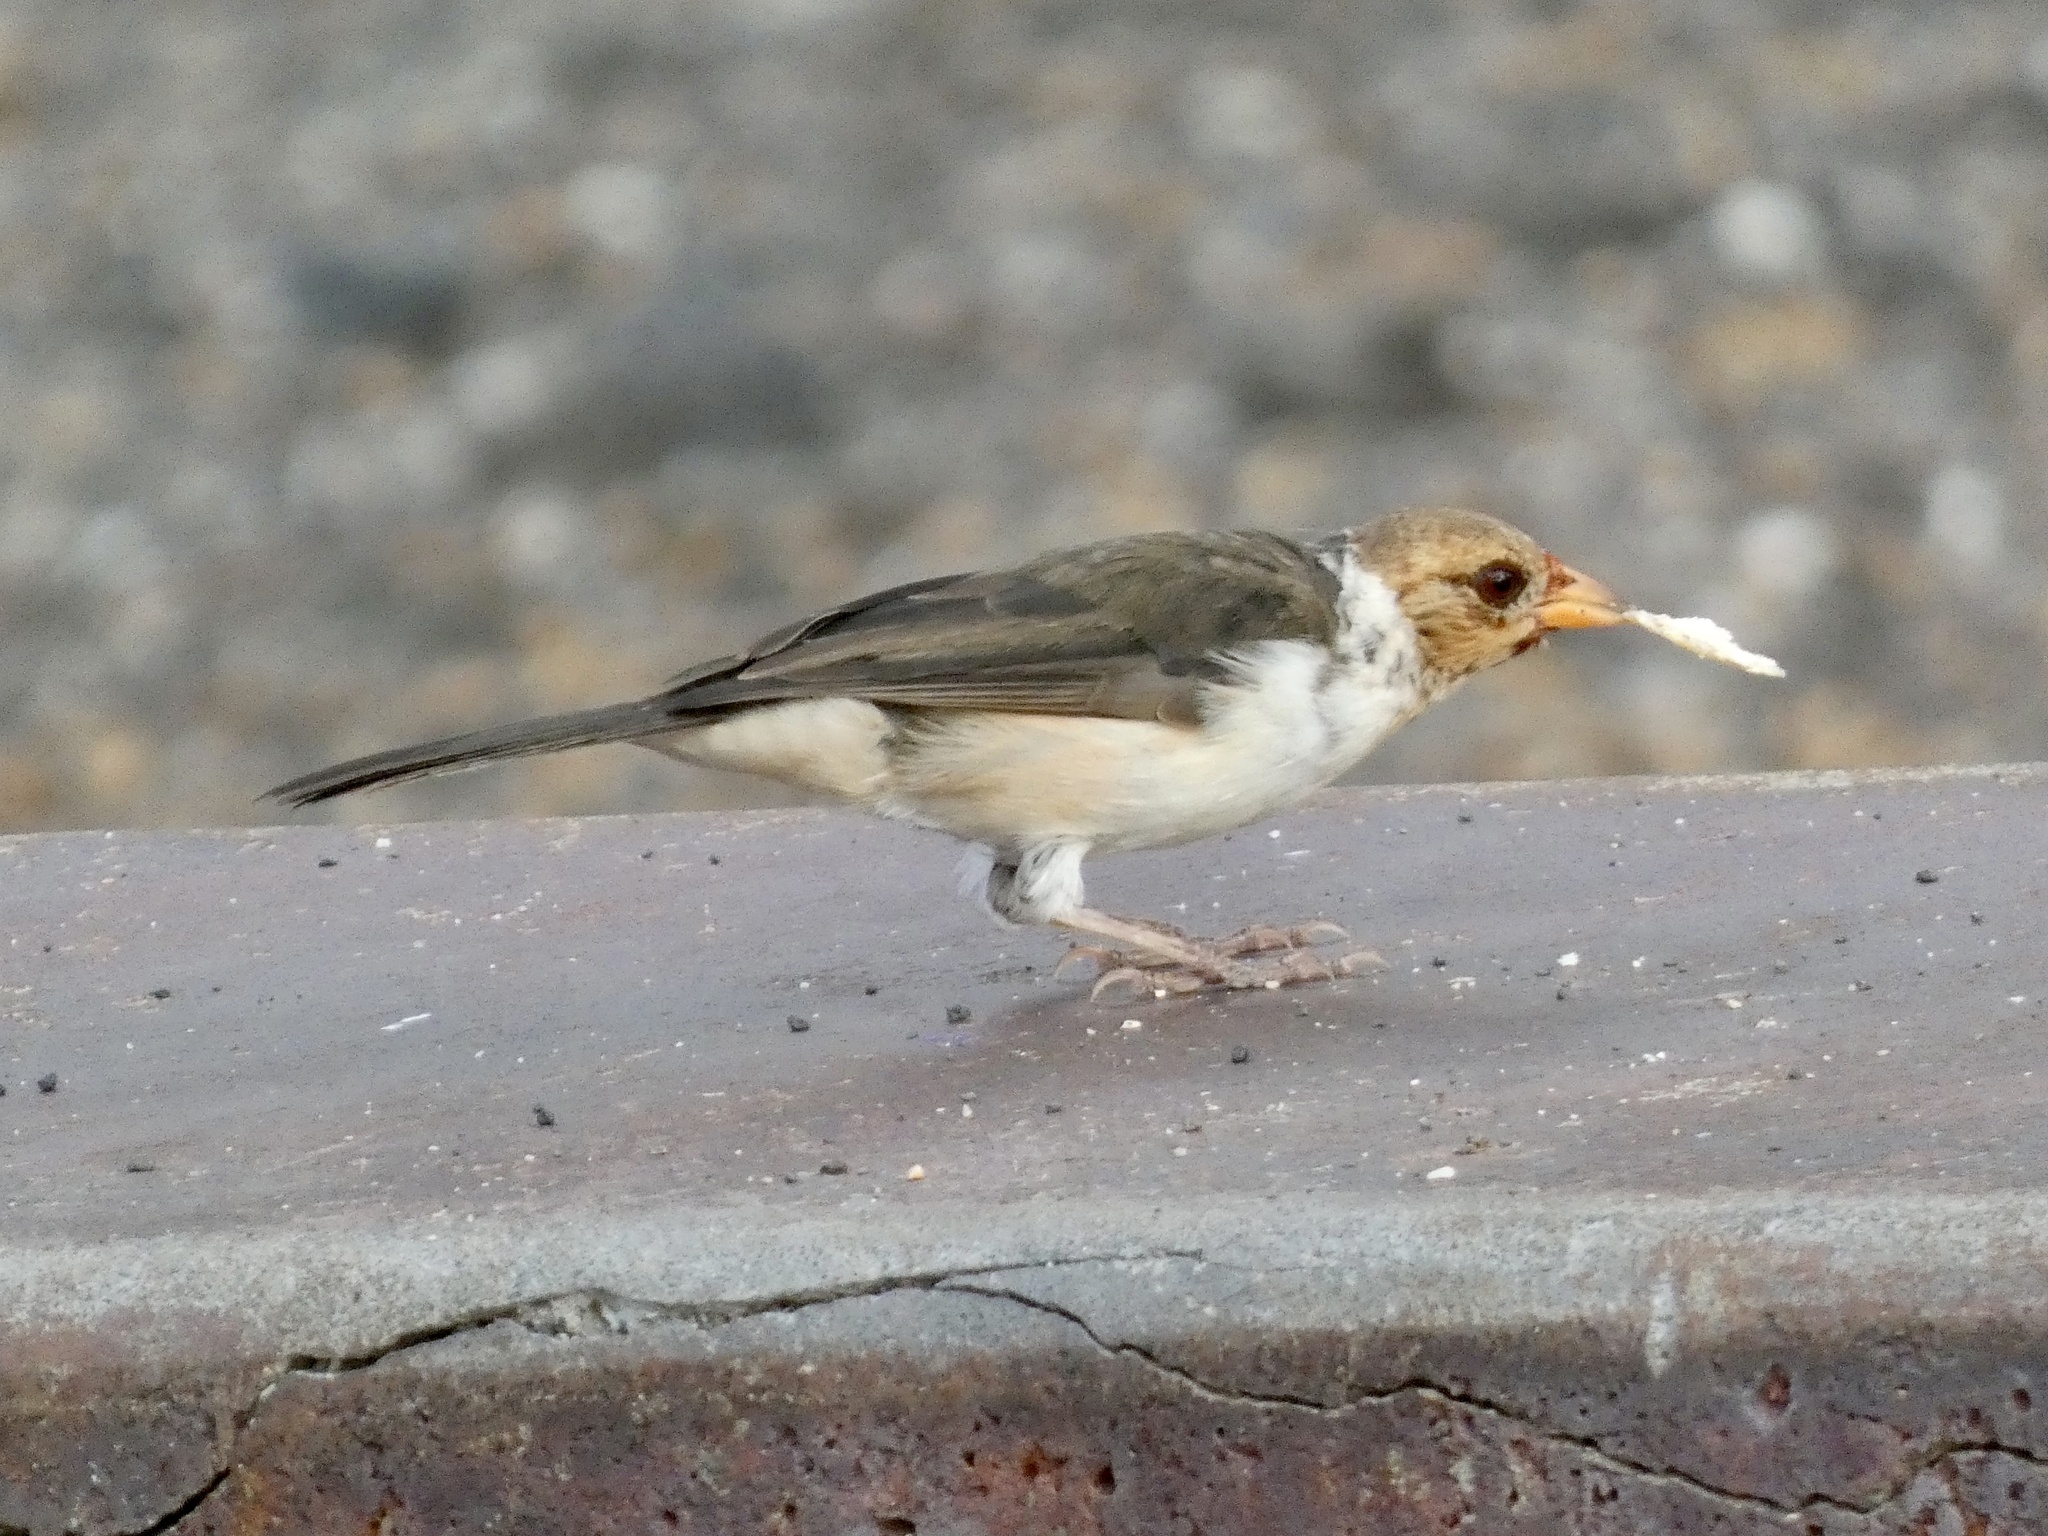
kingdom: Animalia
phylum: Chordata
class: Aves
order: Passeriformes
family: Thraupidae
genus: Paroaria
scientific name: Paroaria capitata
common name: Yellow-billed cardinal
